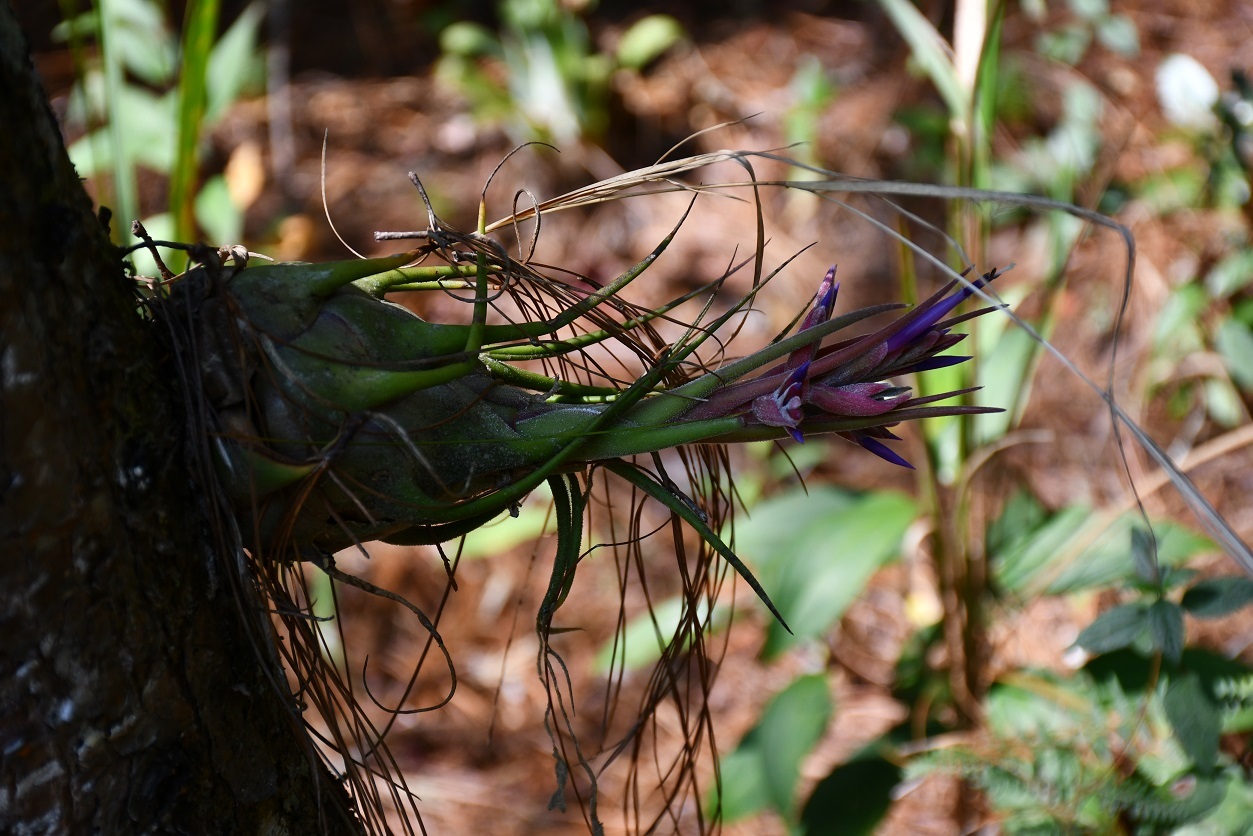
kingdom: Plantae
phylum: Tracheophyta
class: Liliopsida
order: Poales
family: Bromeliaceae
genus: Tillandsia
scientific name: Tillandsia seleriana
